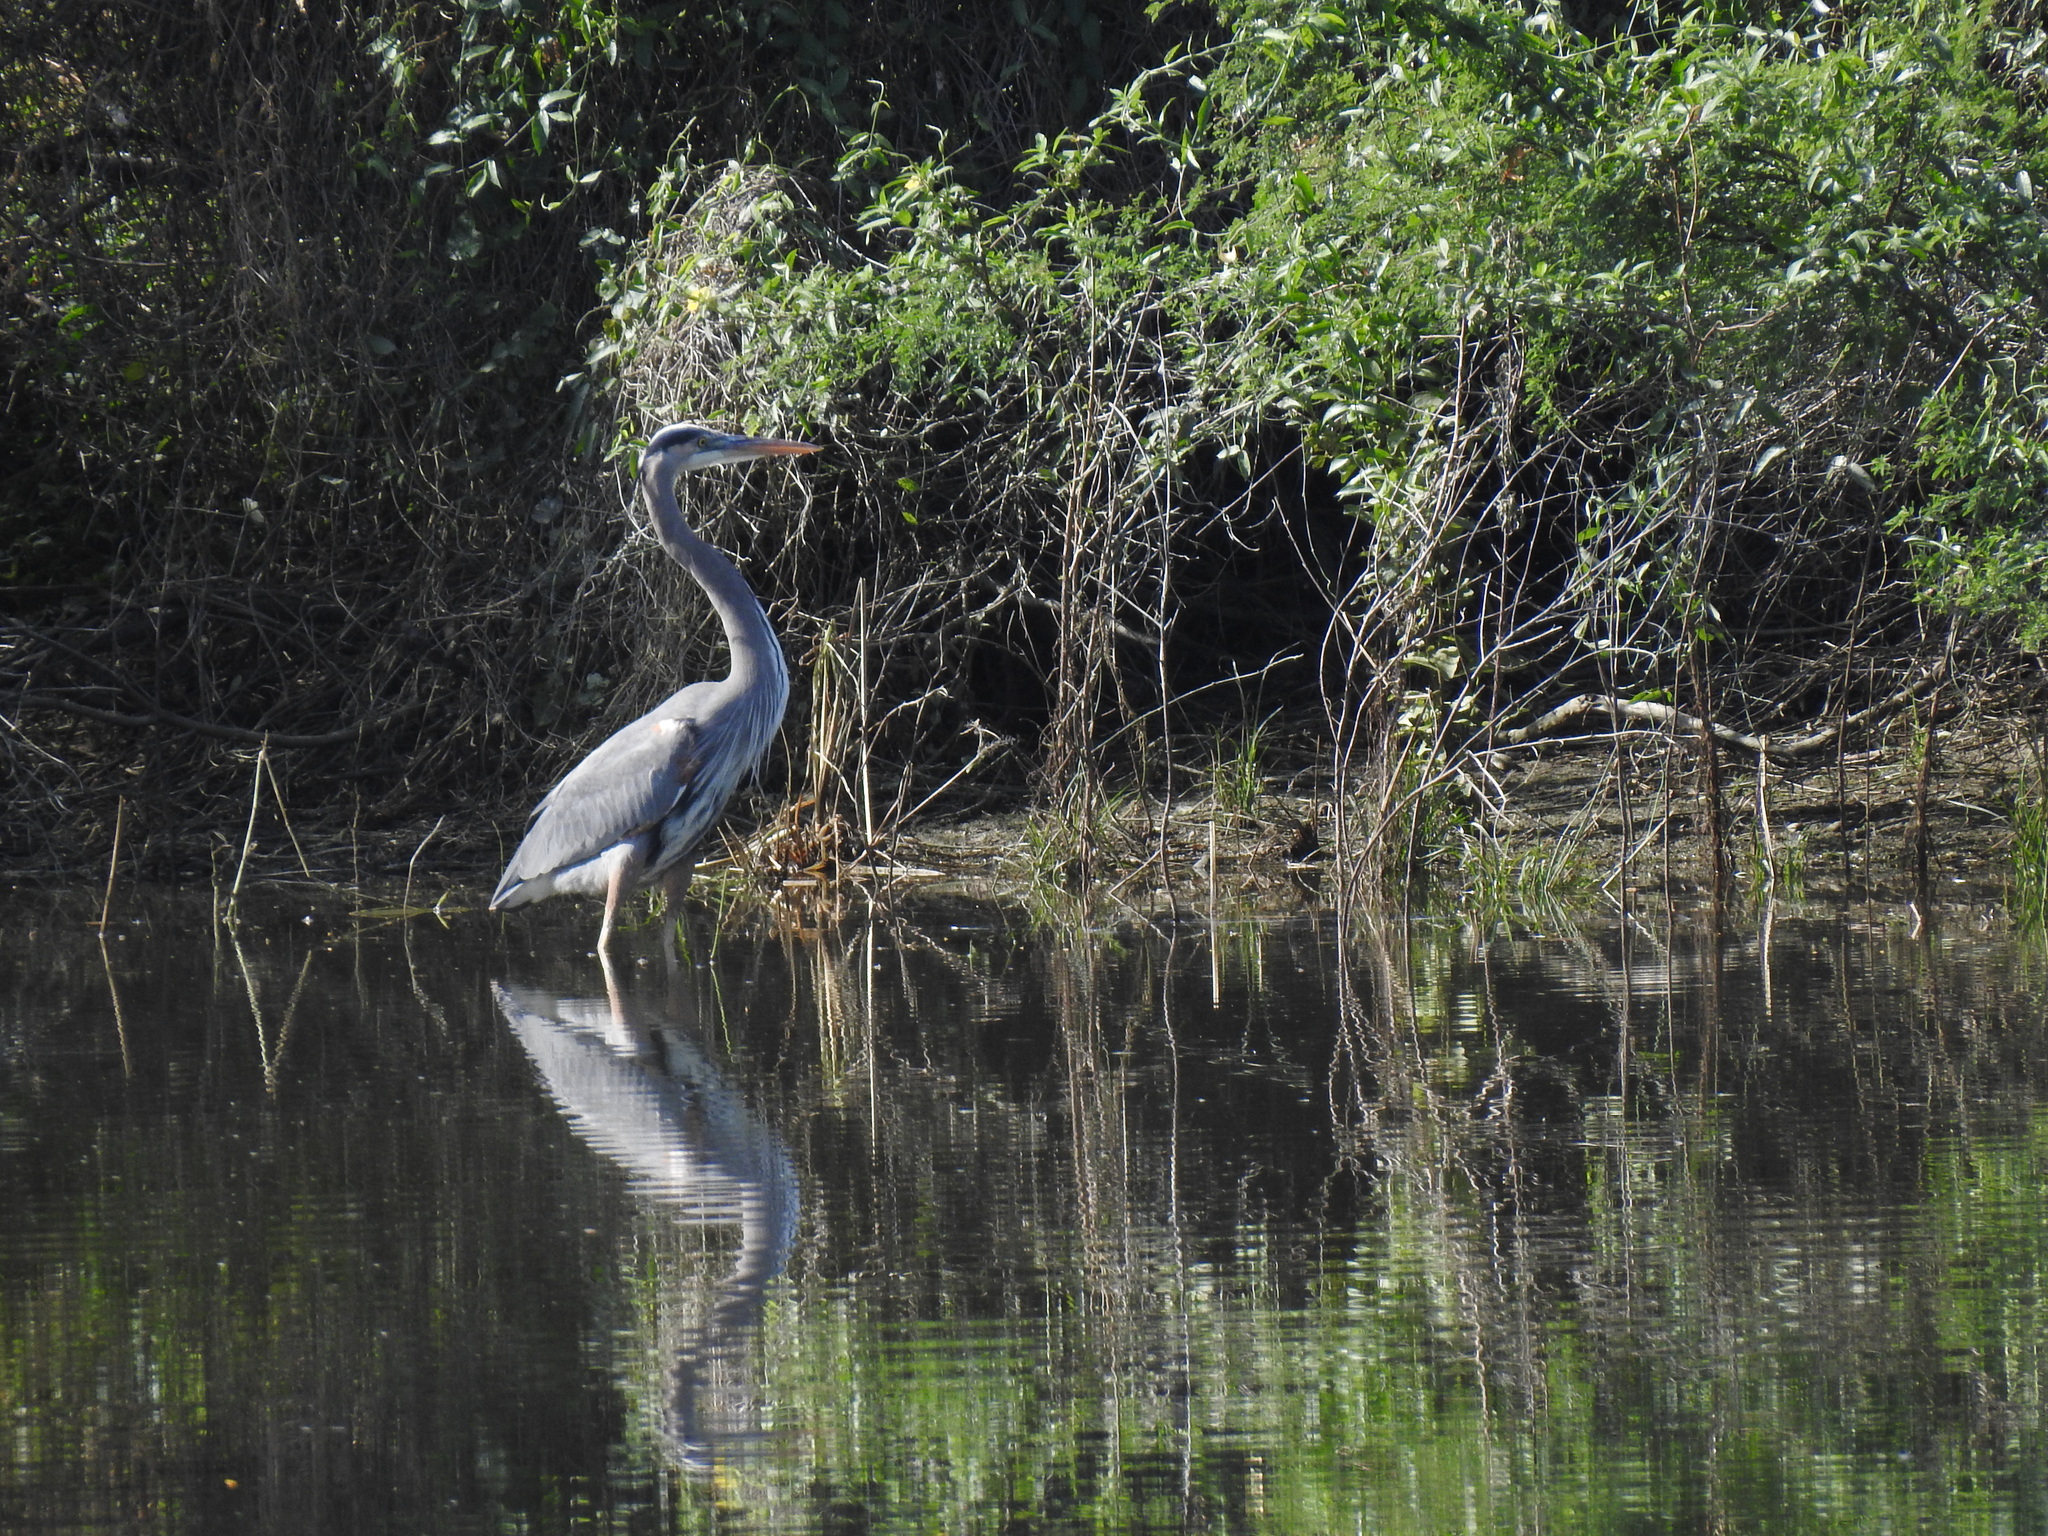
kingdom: Animalia
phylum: Chordata
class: Aves
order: Pelecaniformes
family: Ardeidae
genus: Ardea
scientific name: Ardea herodias
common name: Great blue heron
